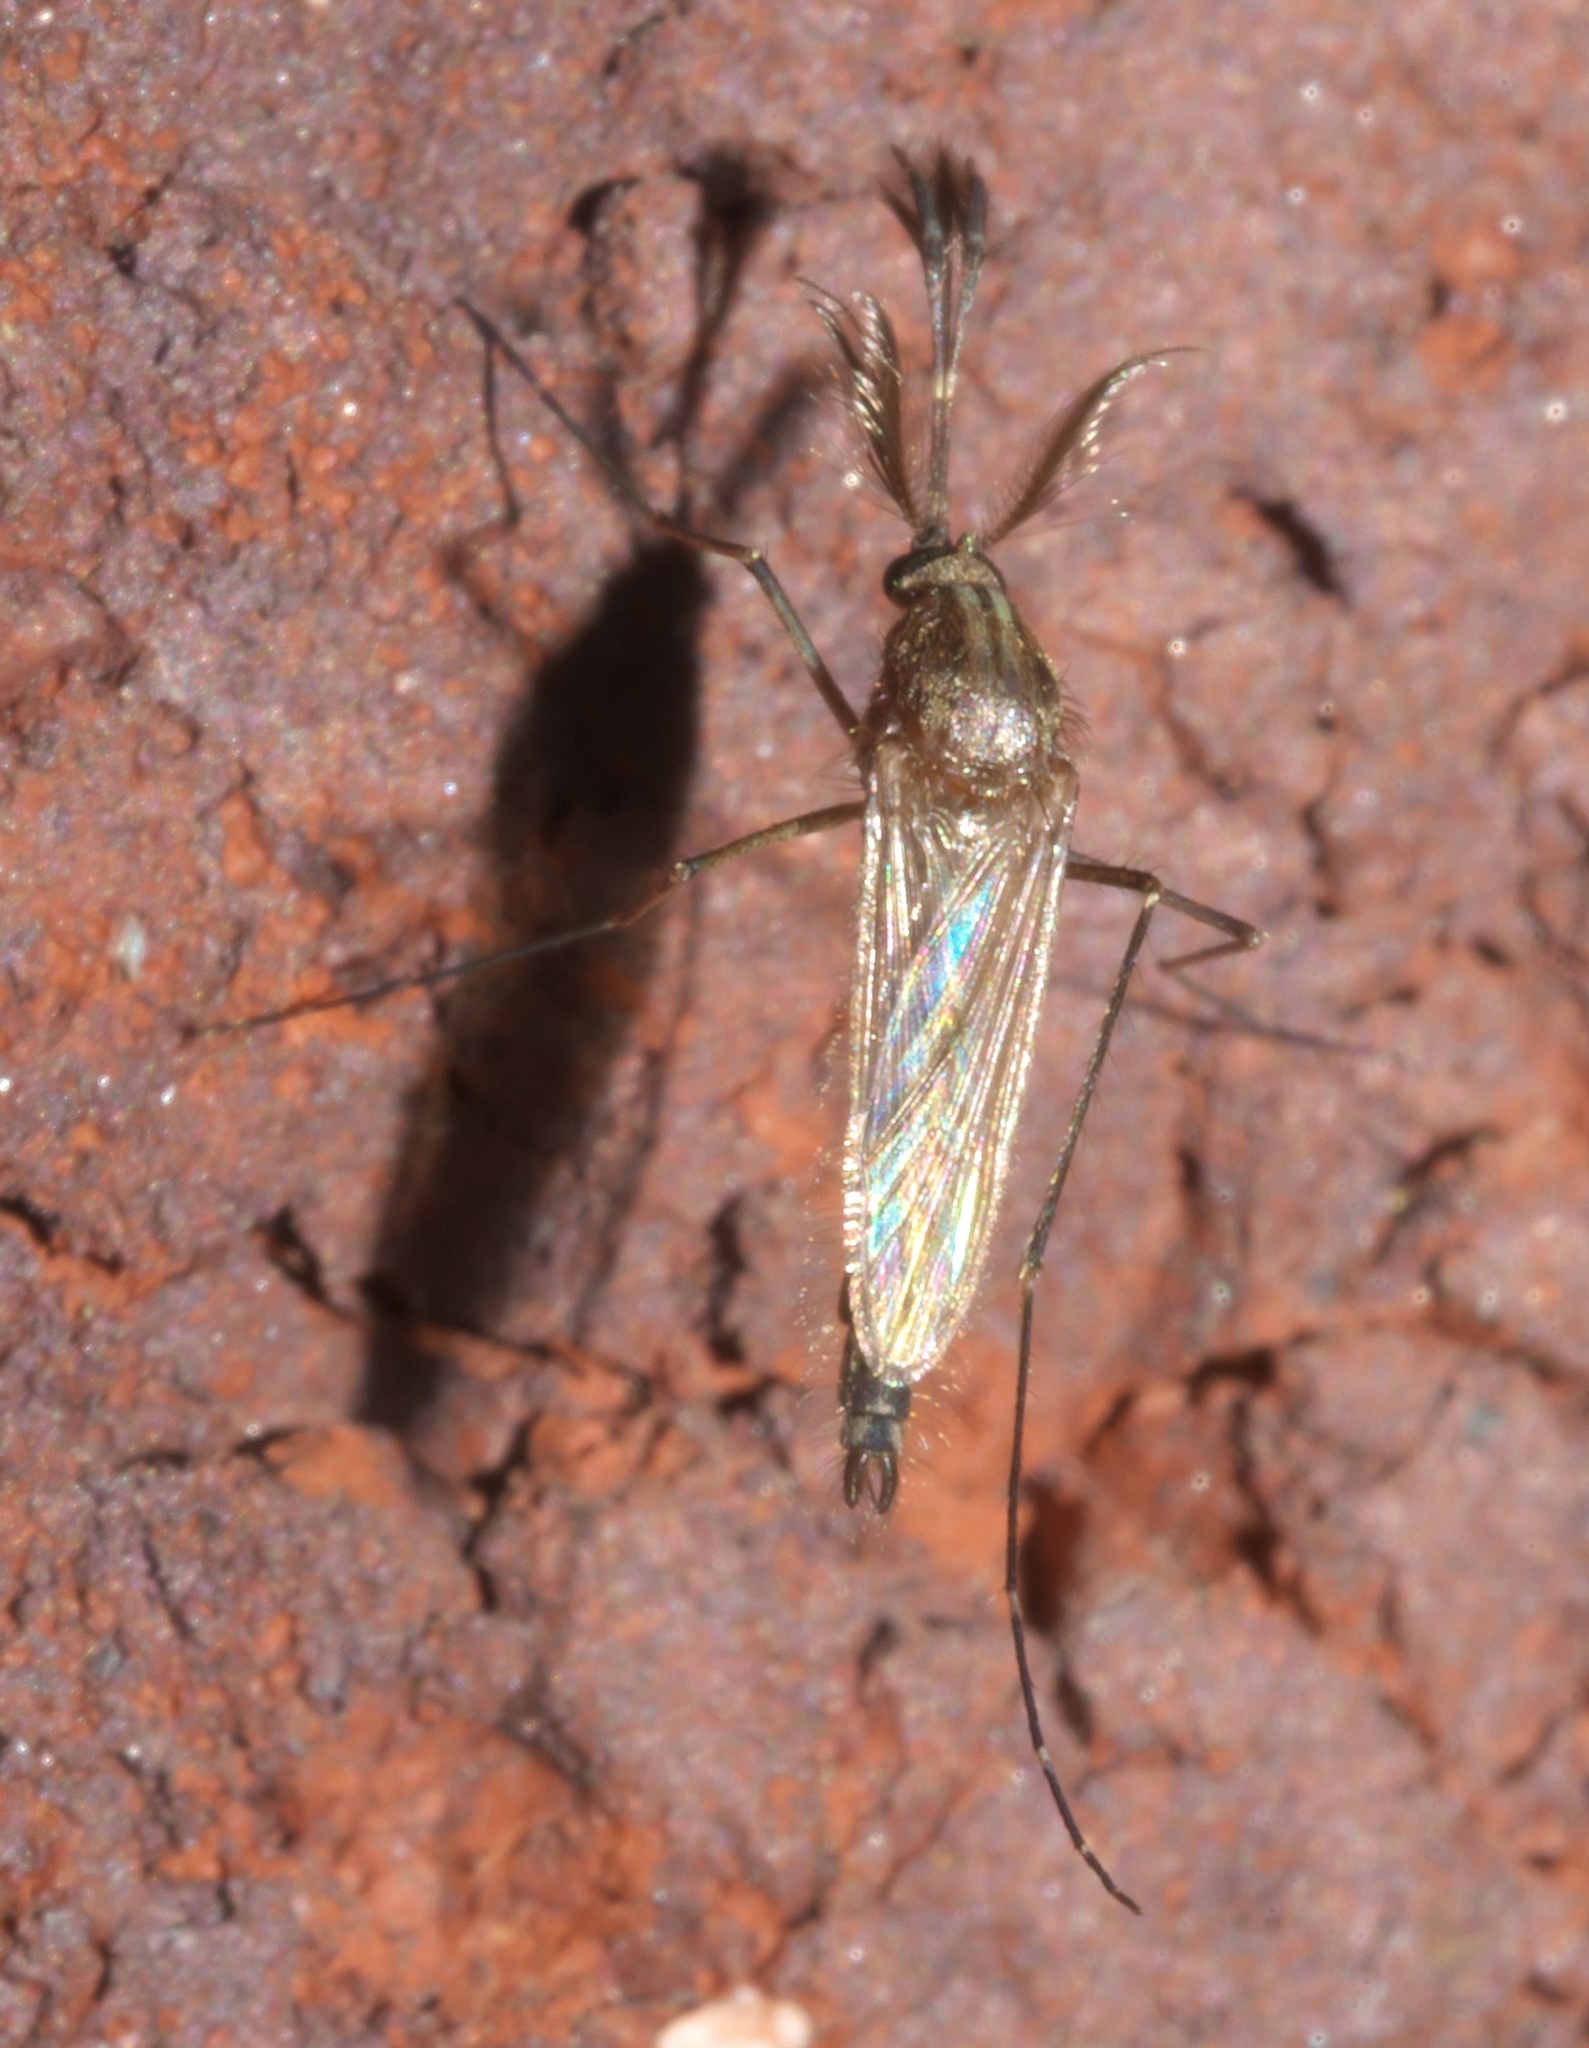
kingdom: Animalia
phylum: Arthropoda
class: Insecta
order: Diptera
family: Culicidae
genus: Aedes
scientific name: Aedes vexans
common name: Inland floodwater mosquito
